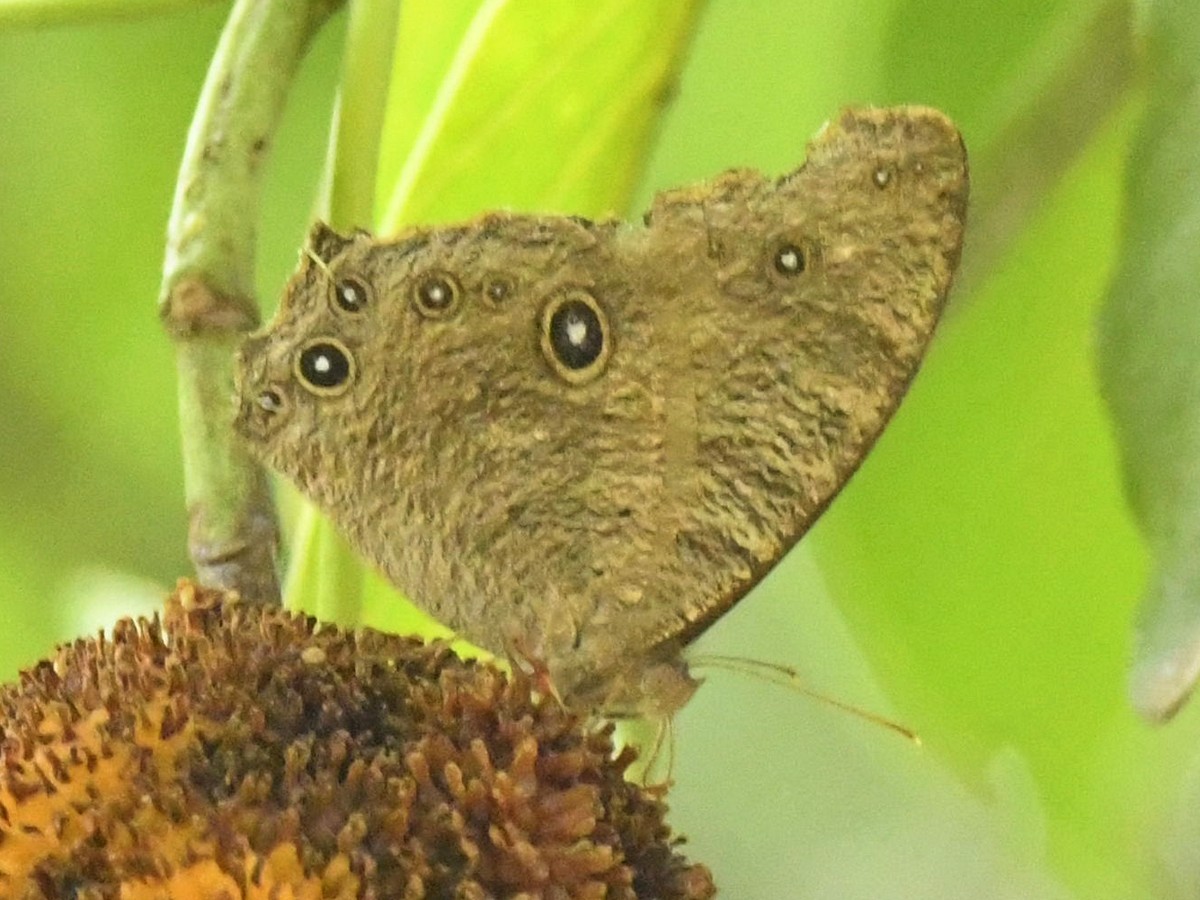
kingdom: Animalia
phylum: Arthropoda
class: Insecta
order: Lepidoptera
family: Nymphalidae
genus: Melanitis
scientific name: Melanitis leda
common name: Twilight brown
